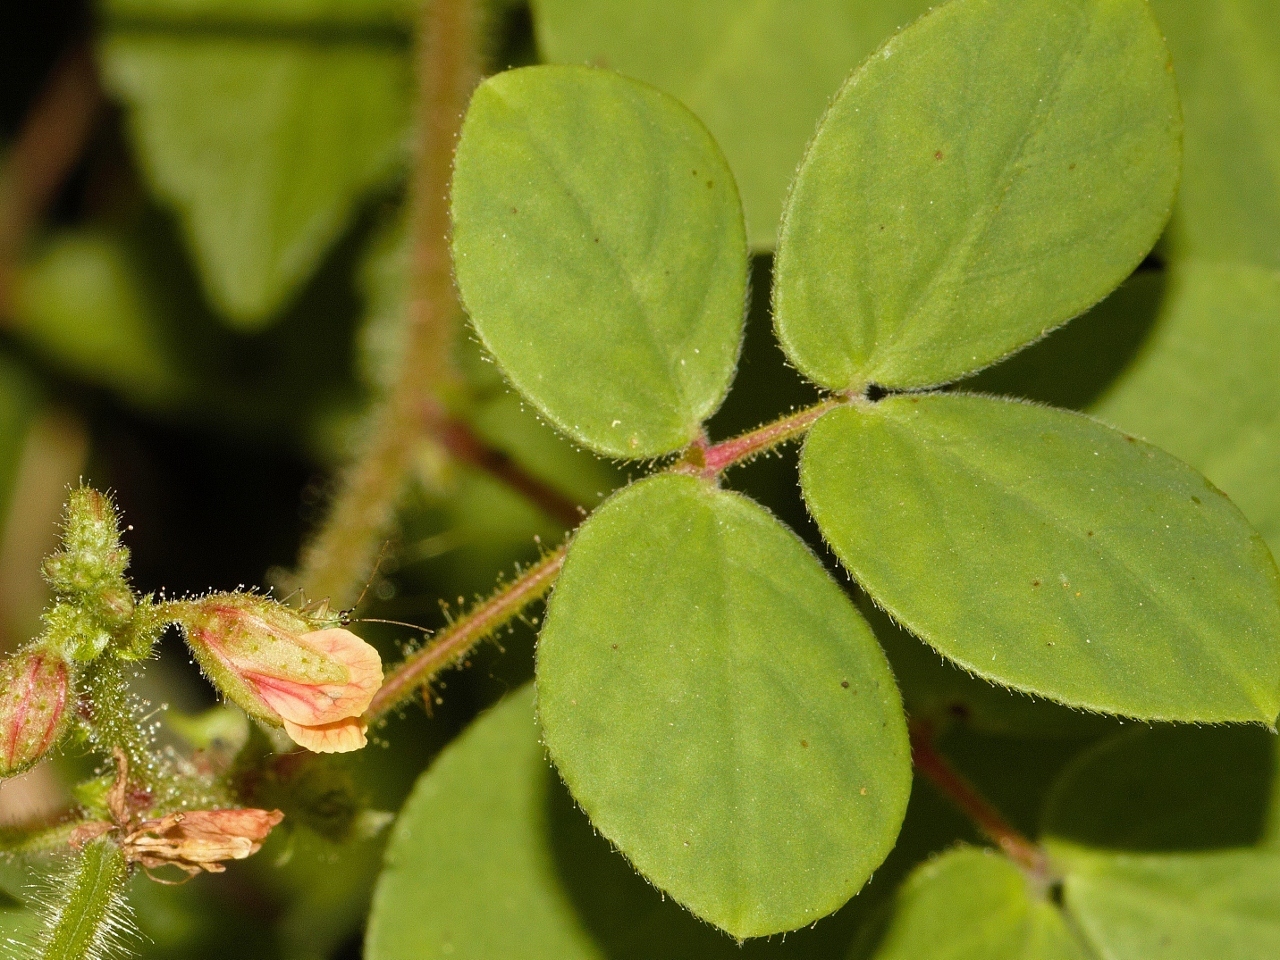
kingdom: Plantae
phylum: Tracheophyta
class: Magnoliopsida
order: Fabales
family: Fabaceae
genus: Chamaecrista
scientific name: Chamaecrista absus
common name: Tropical sensitive pea
